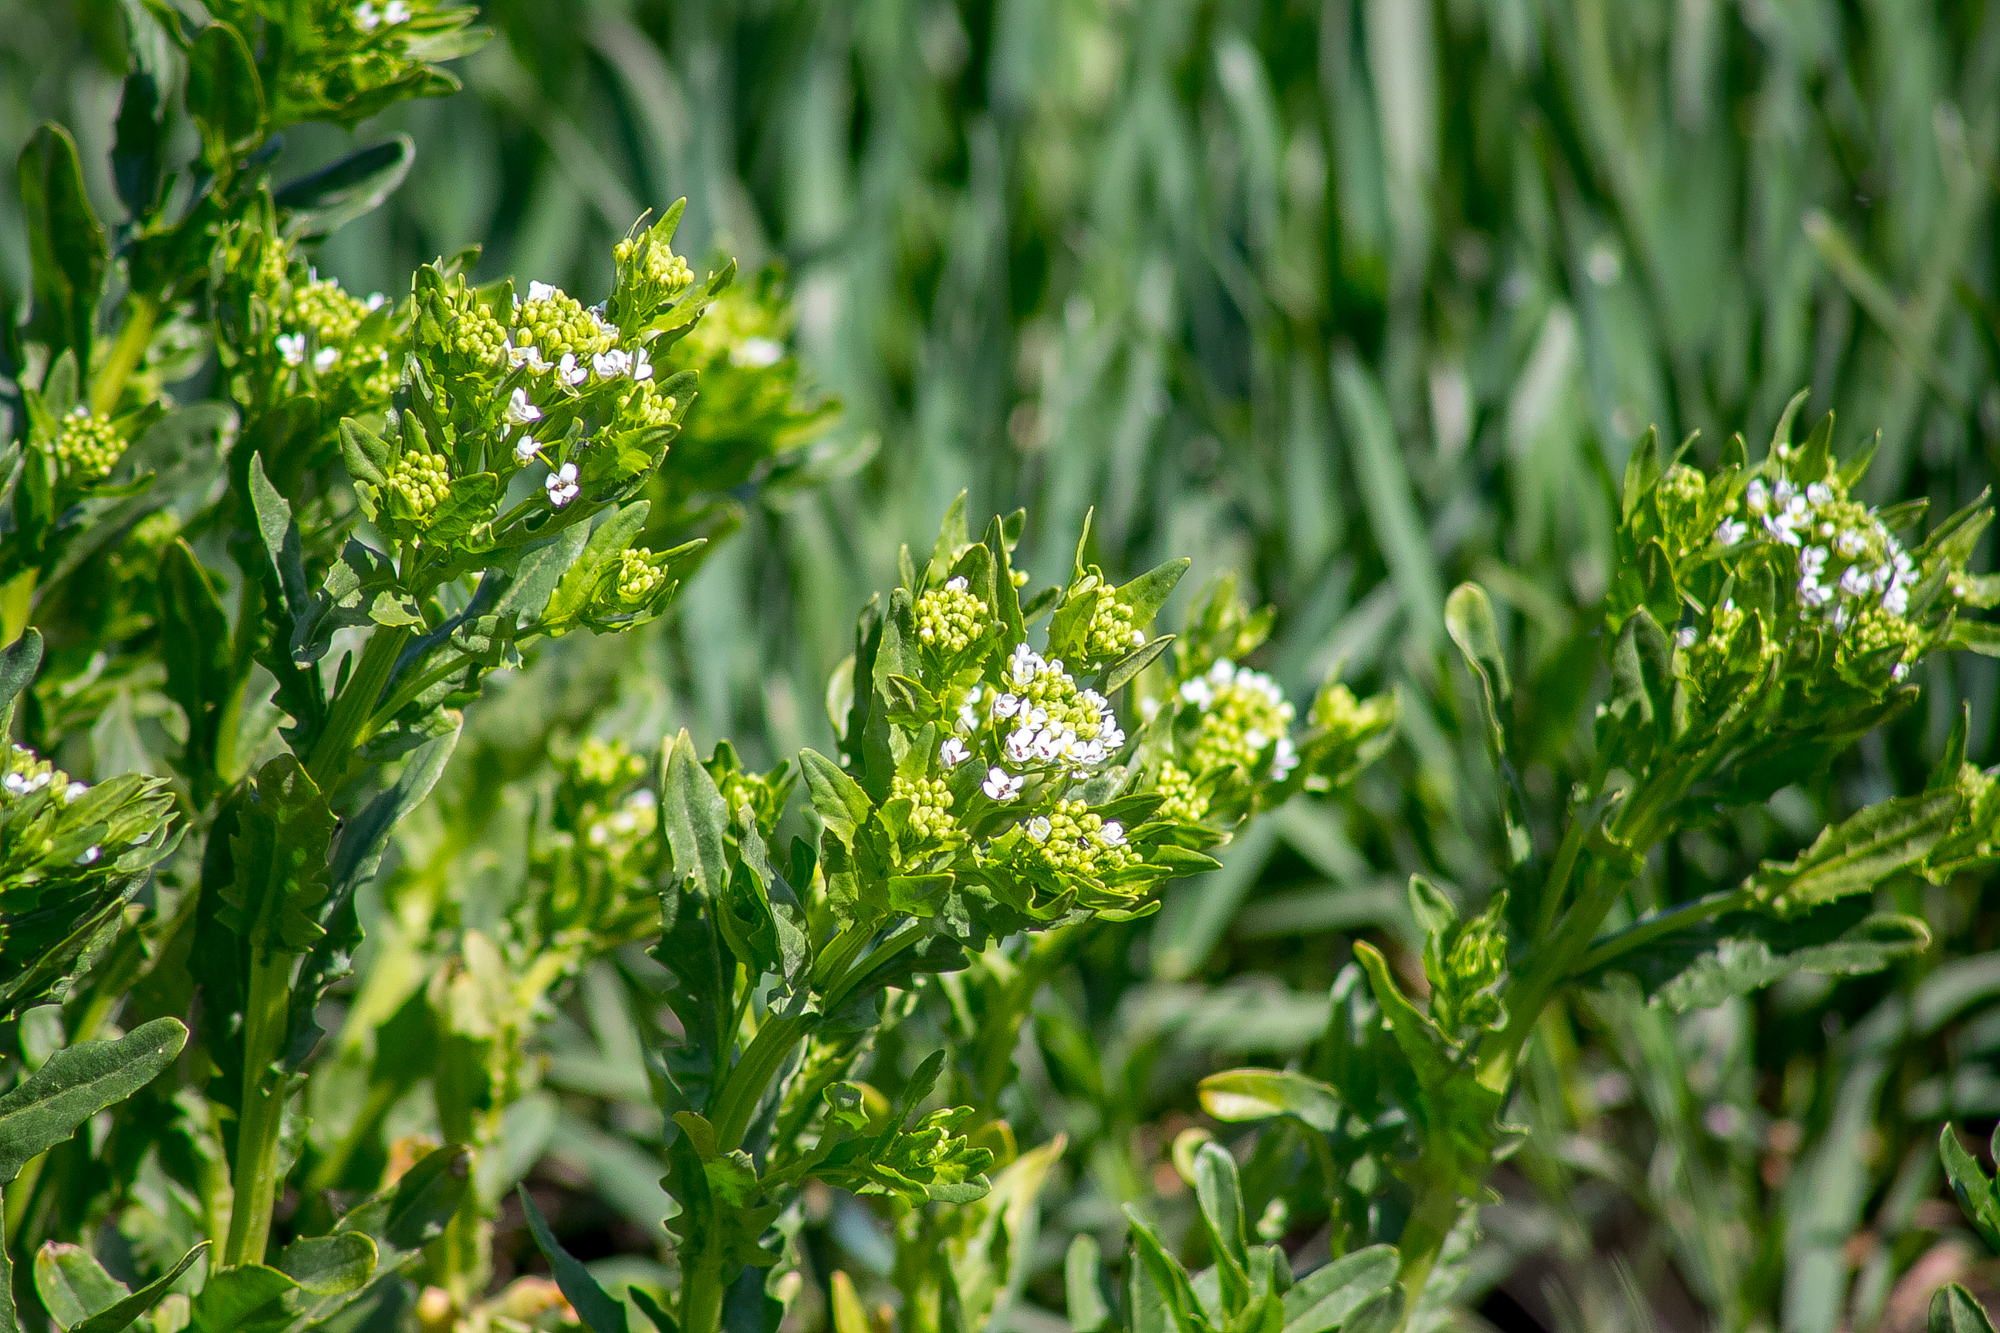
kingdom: Plantae
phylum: Tracheophyta
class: Magnoliopsida
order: Brassicales
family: Brassicaceae
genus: Thlaspi
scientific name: Thlaspi arvense
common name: Field pennycress
